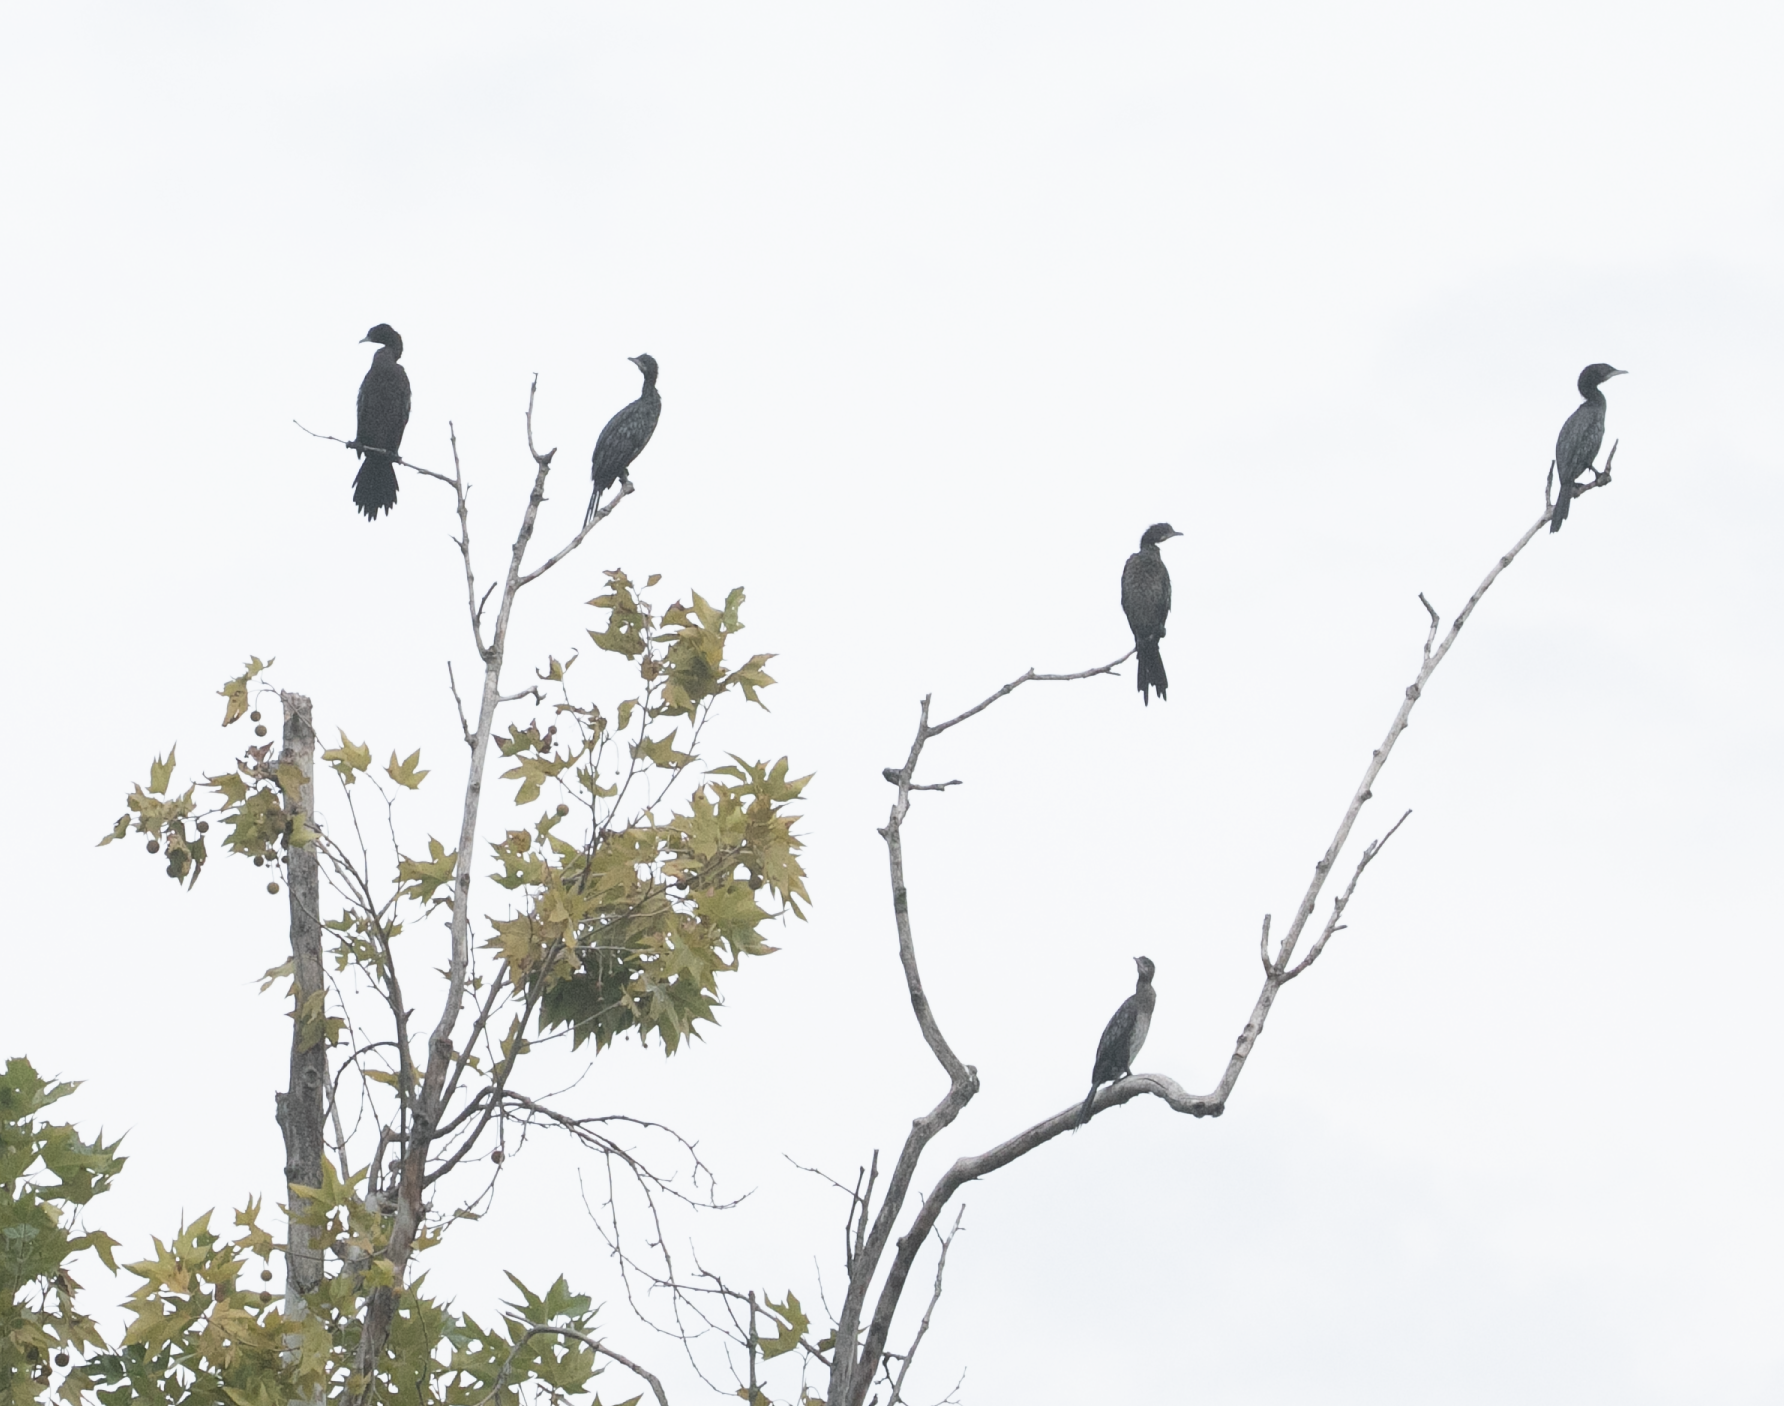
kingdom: Animalia
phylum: Chordata
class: Aves
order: Suliformes
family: Phalacrocoracidae
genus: Microcarbo
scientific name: Microcarbo pygmaeus
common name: Pygmy cormorant
